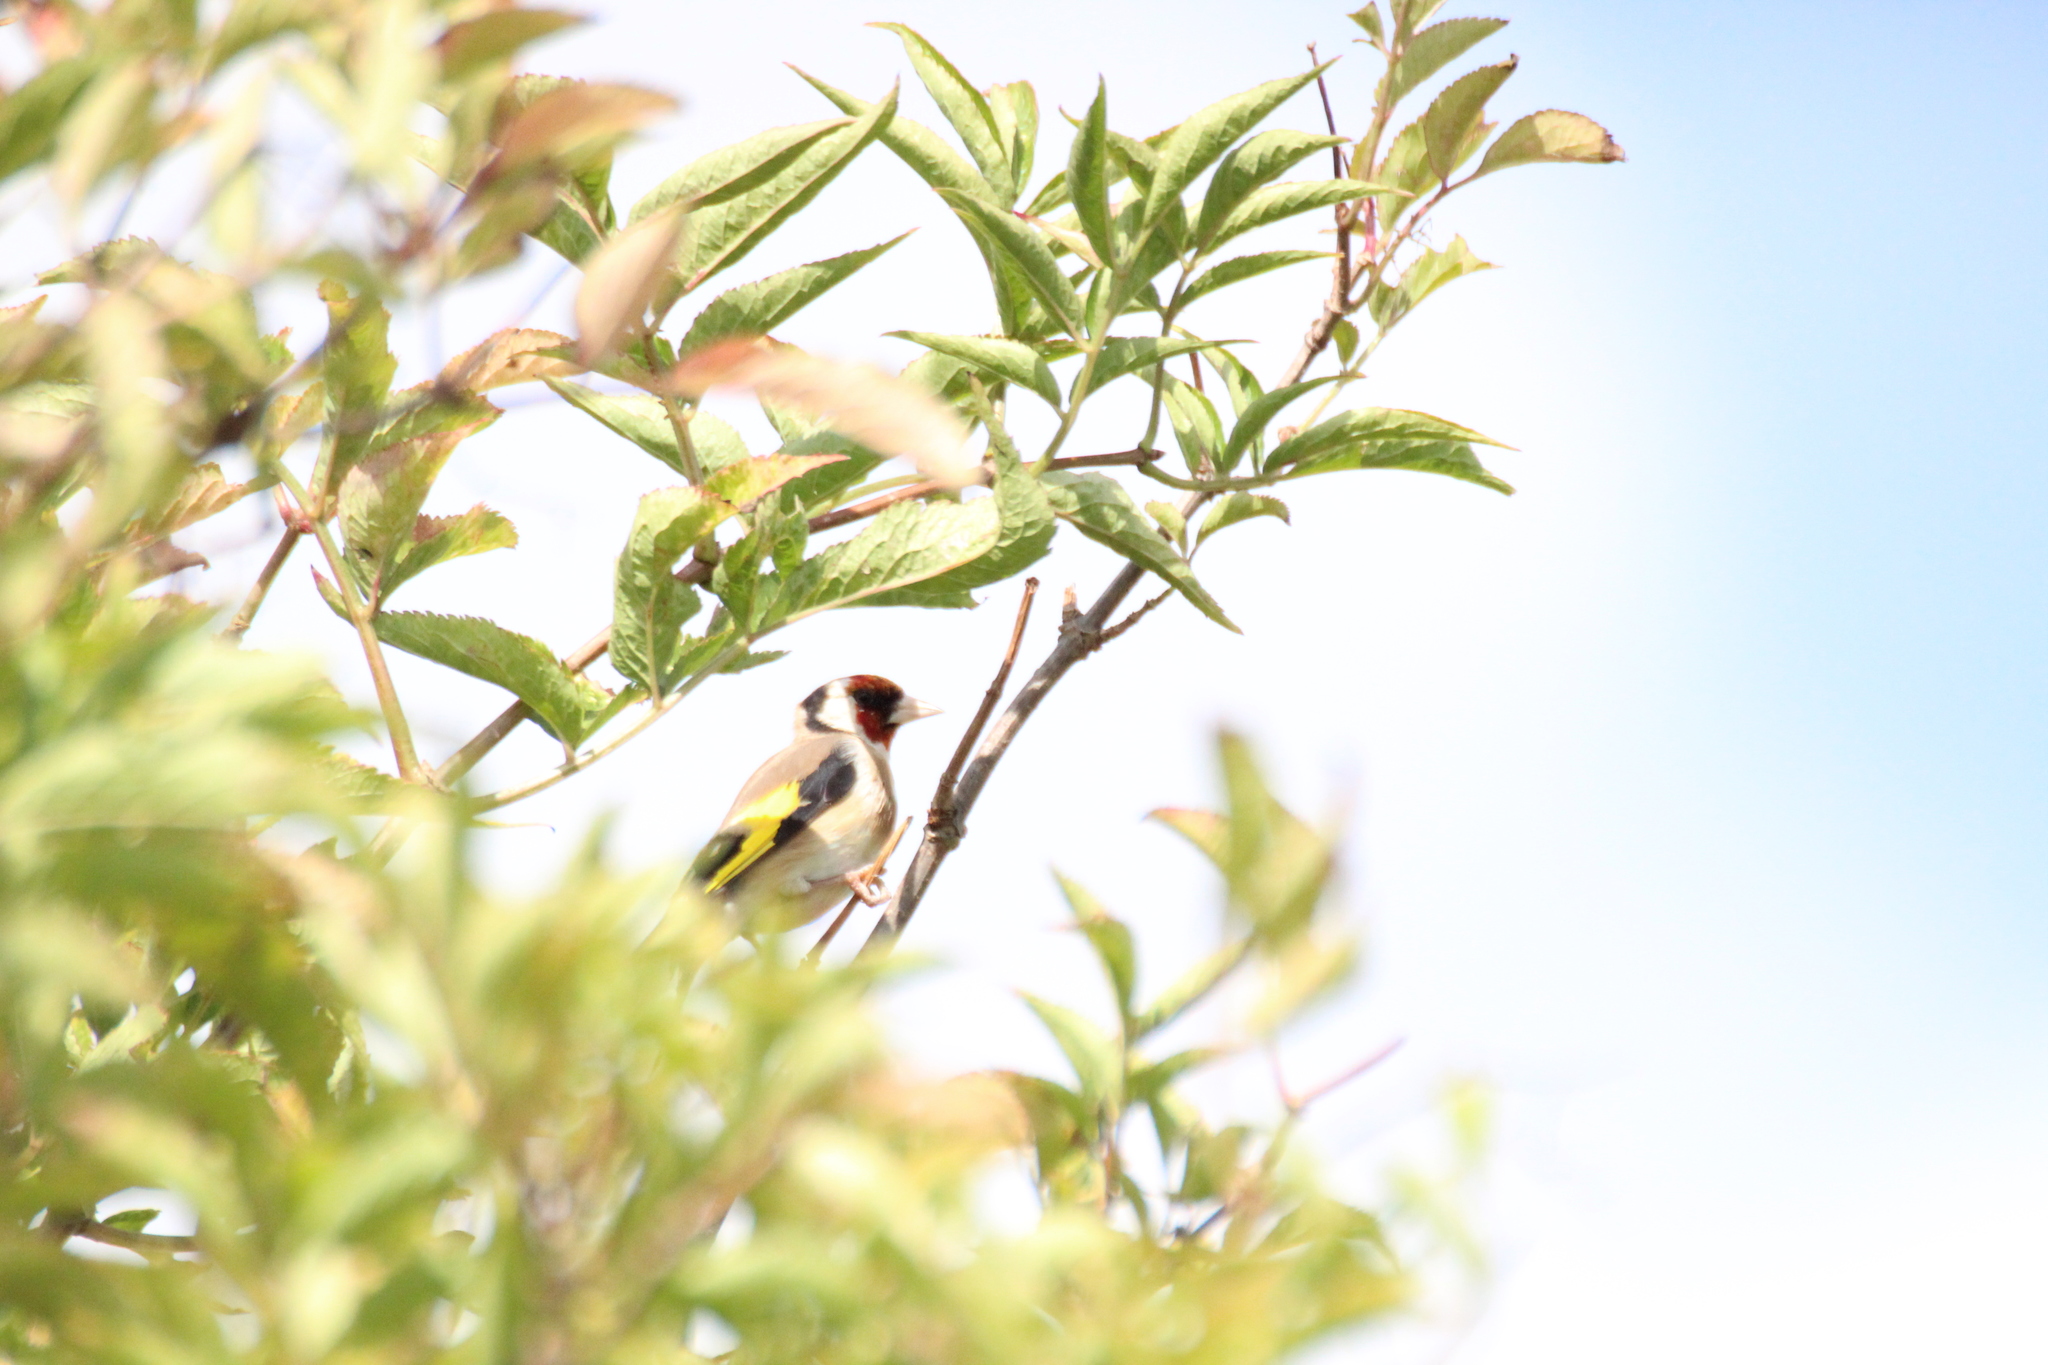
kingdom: Animalia
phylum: Chordata
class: Aves
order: Passeriformes
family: Fringillidae
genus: Carduelis
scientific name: Carduelis carduelis
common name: European goldfinch
